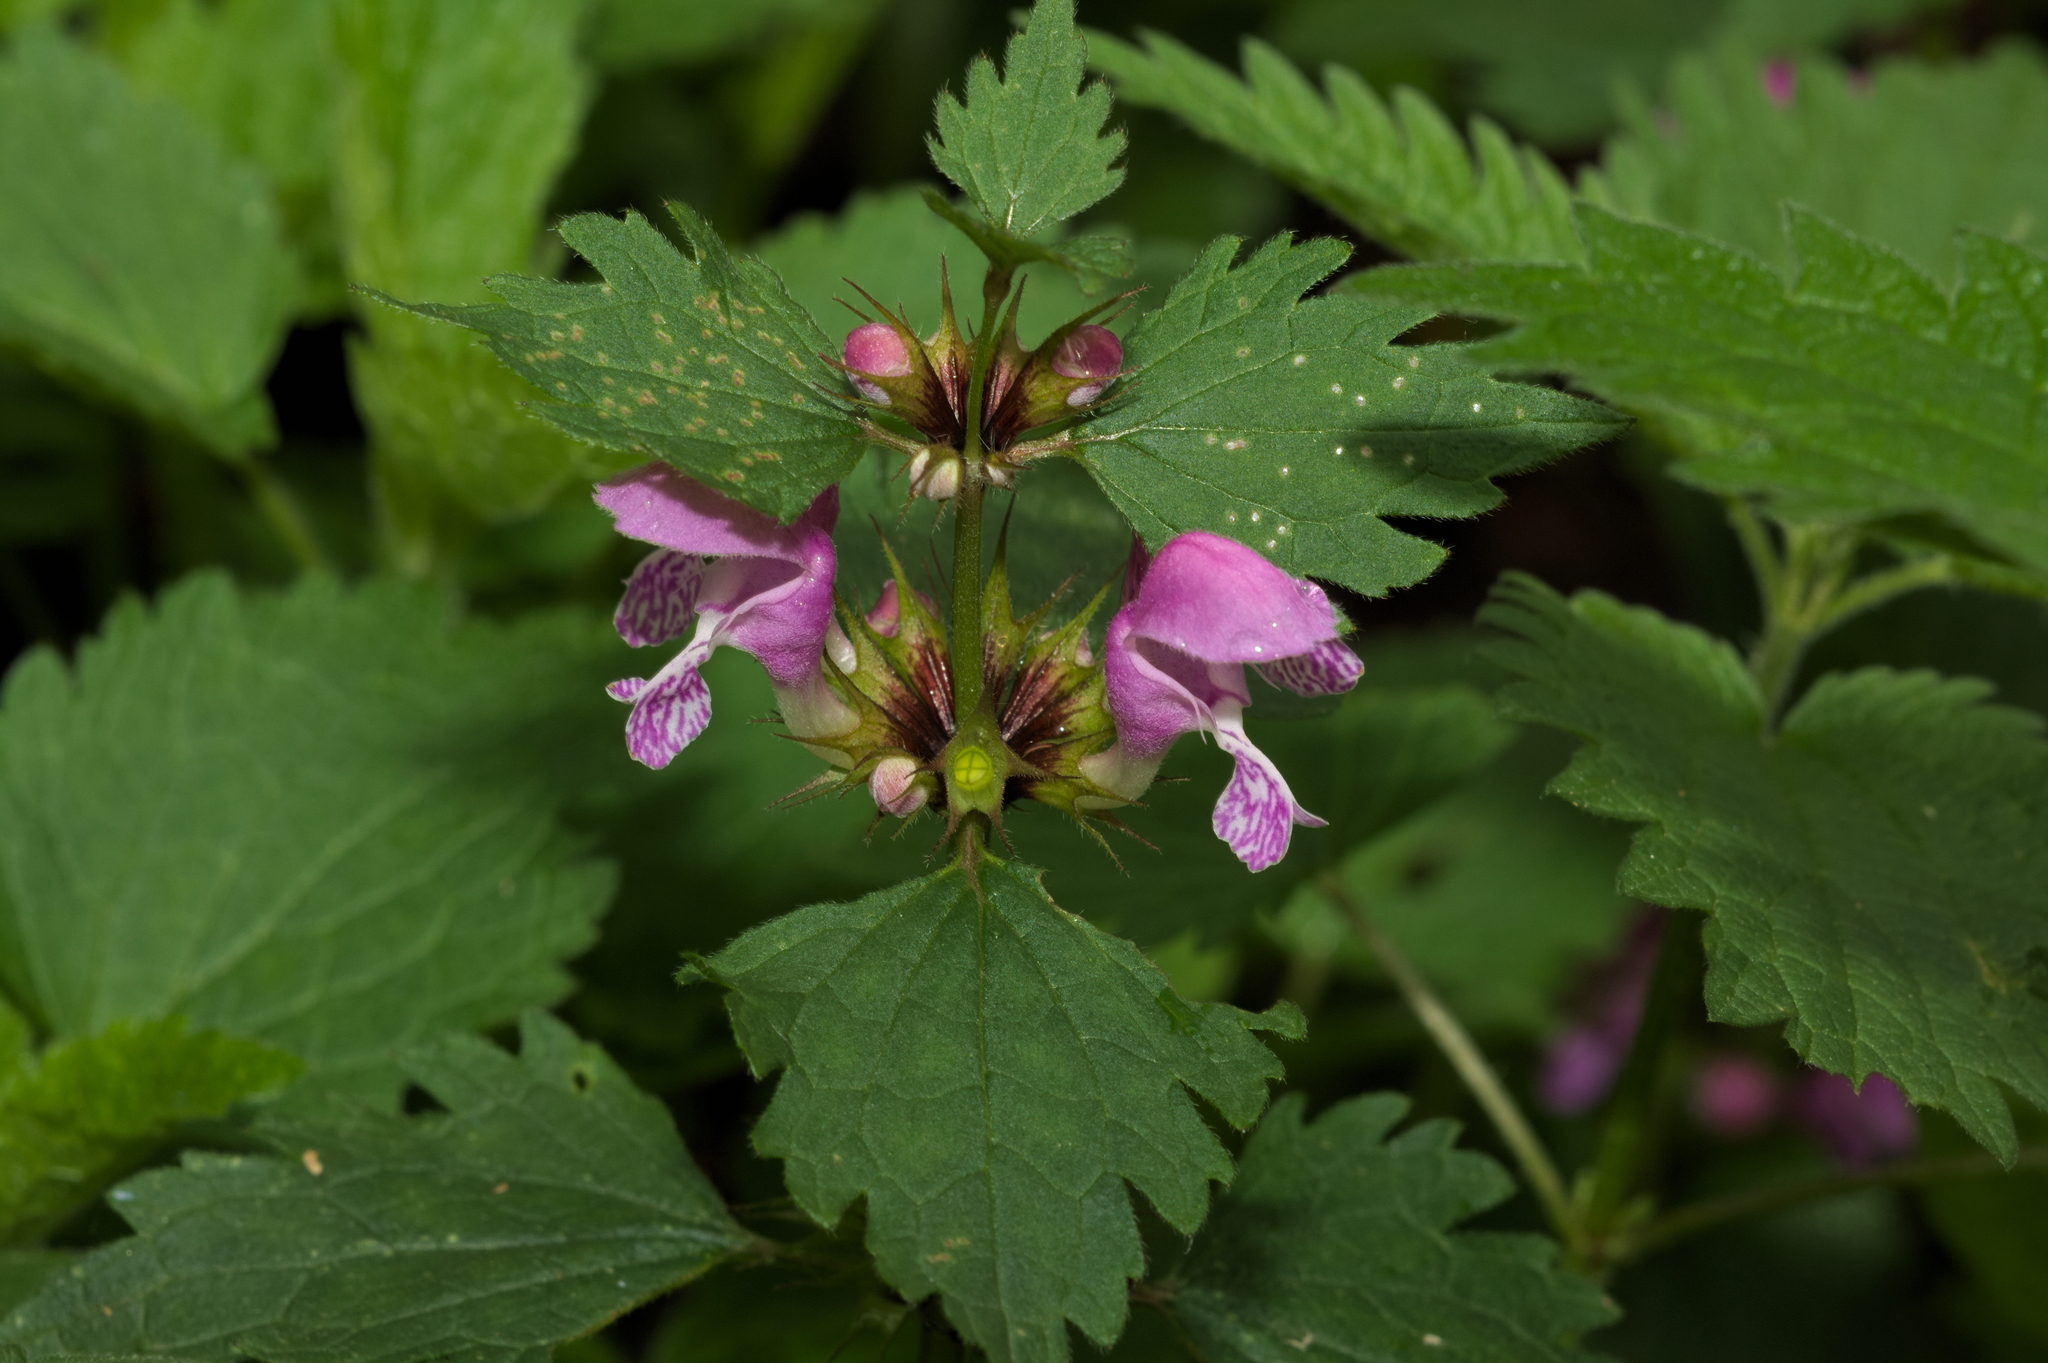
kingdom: Plantae
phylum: Tracheophyta
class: Magnoliopsida
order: Lamiales
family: Lamiaceae
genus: Lamium
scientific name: Lamium maculatum
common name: Spotted dead-nettle
